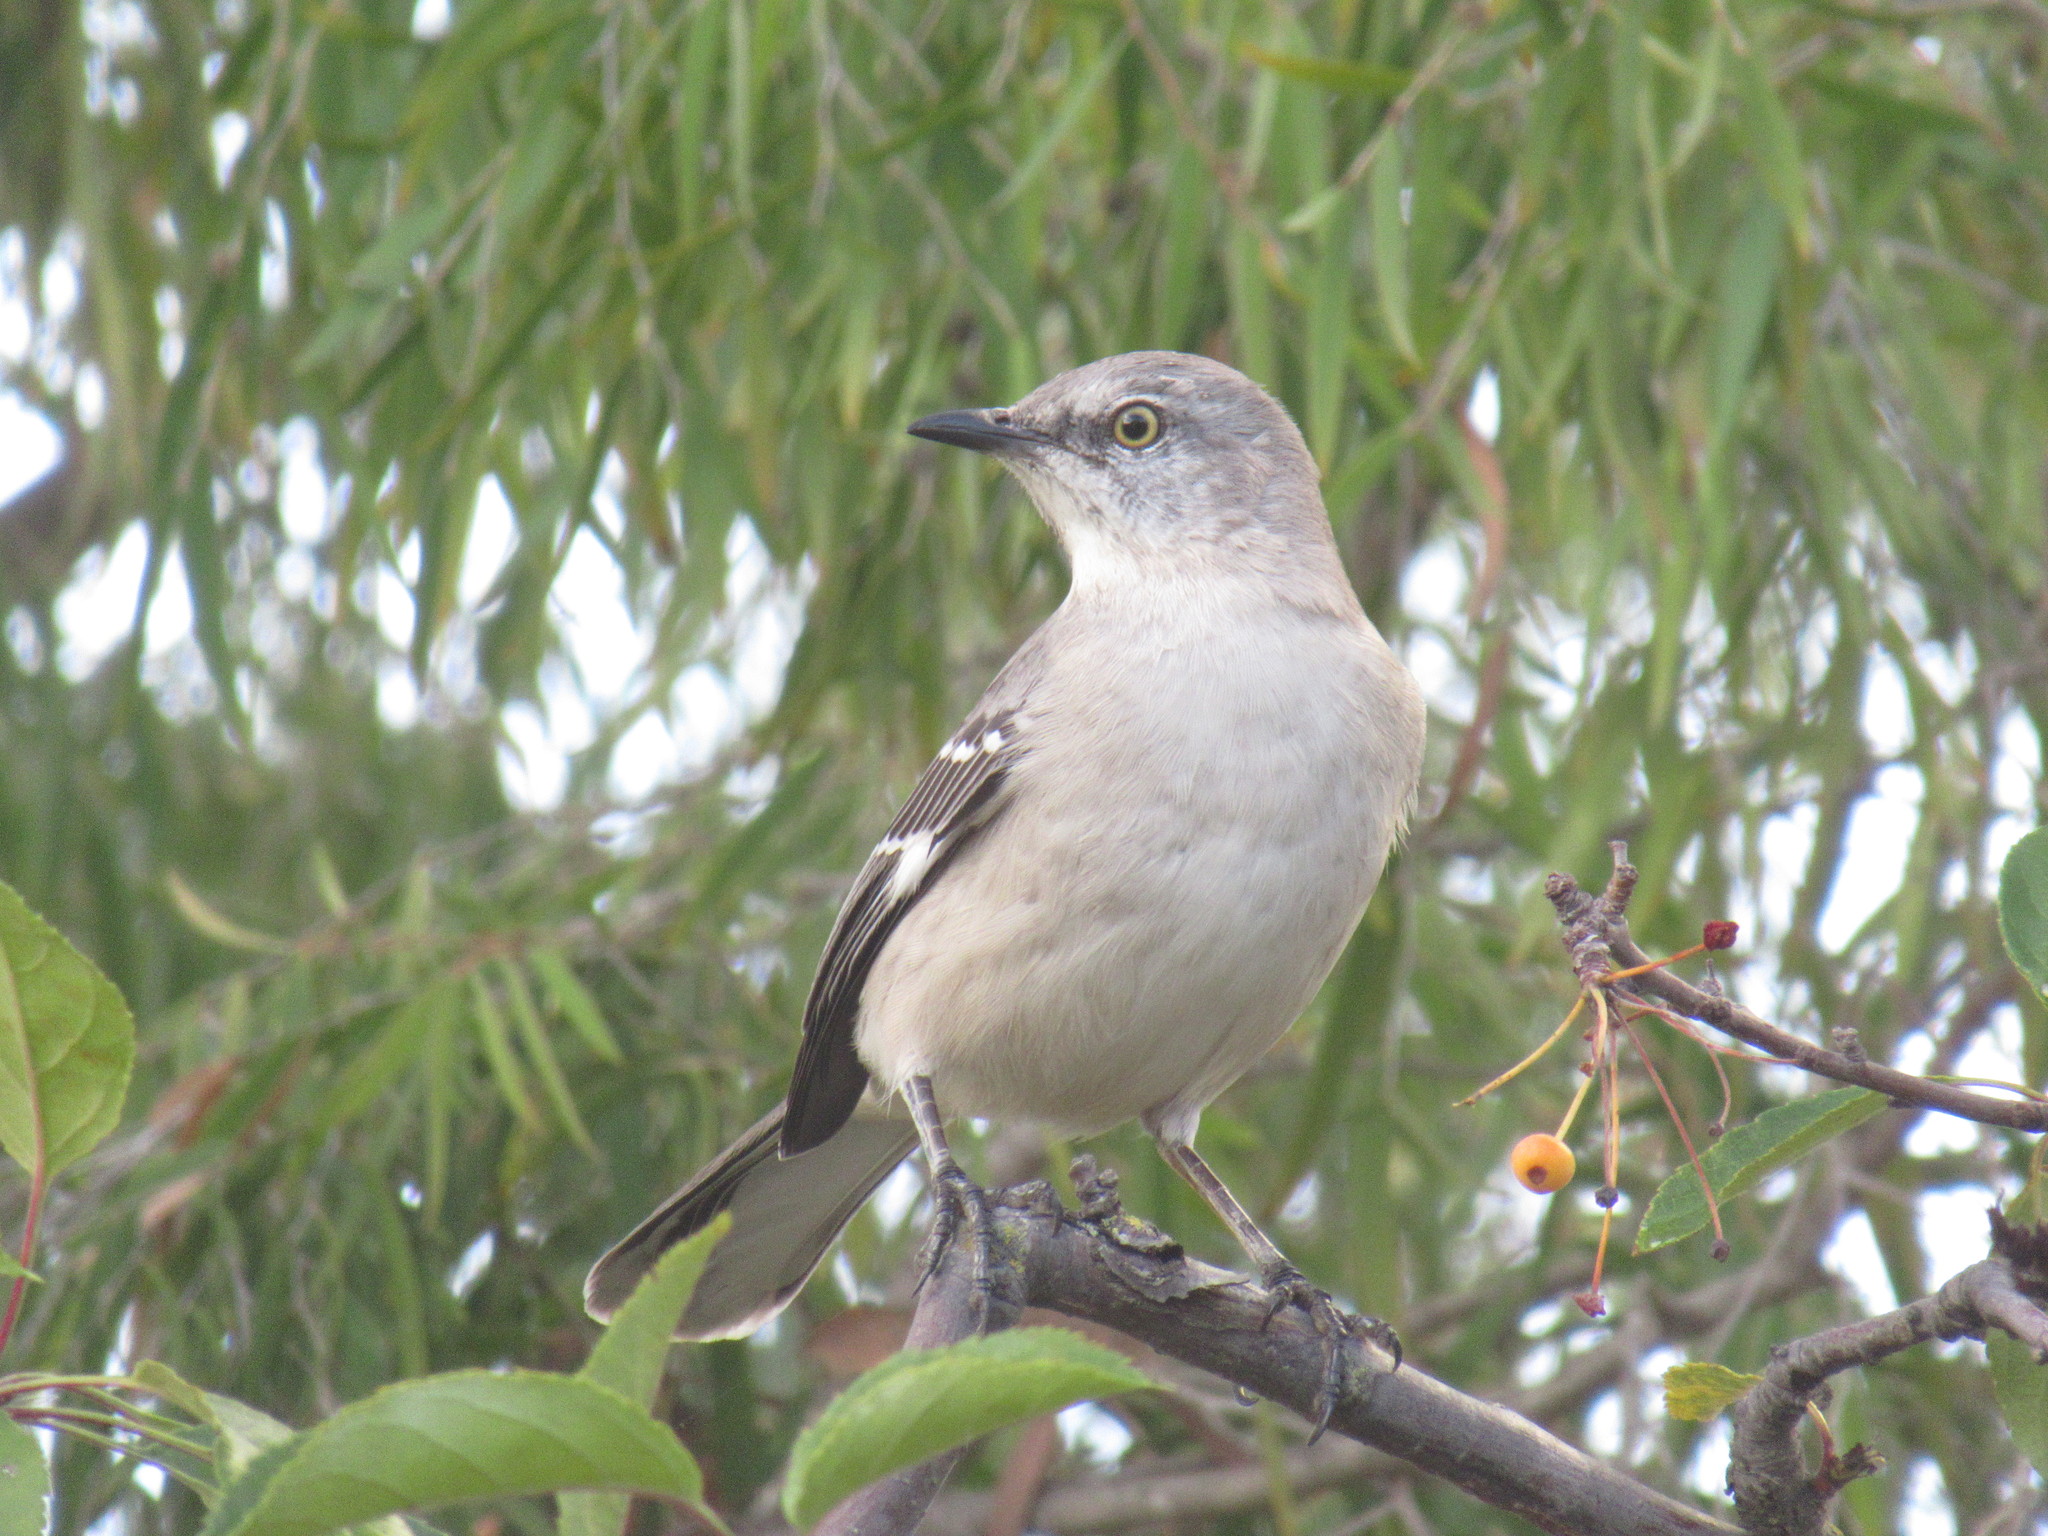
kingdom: Animalia
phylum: Chordata
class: Aves
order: Passeriformes
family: Mimidae
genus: Mimus
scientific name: Mimus polyglottos
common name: Northern mockingbird
